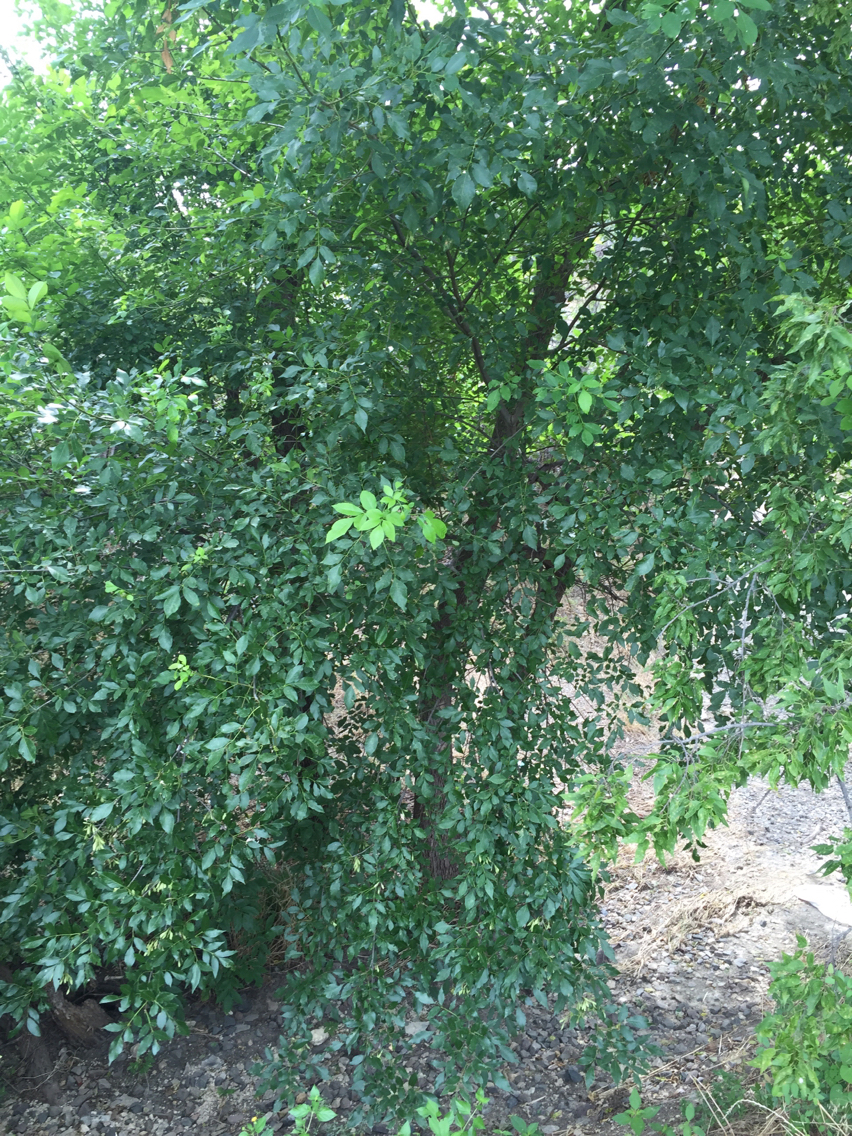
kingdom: Plantae
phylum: Tracheophyta
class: Magnoliopsida
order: Lamiales
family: Oleaceae
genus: Fraxinus
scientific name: Fraxinus pennsylvanica
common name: Green ash
